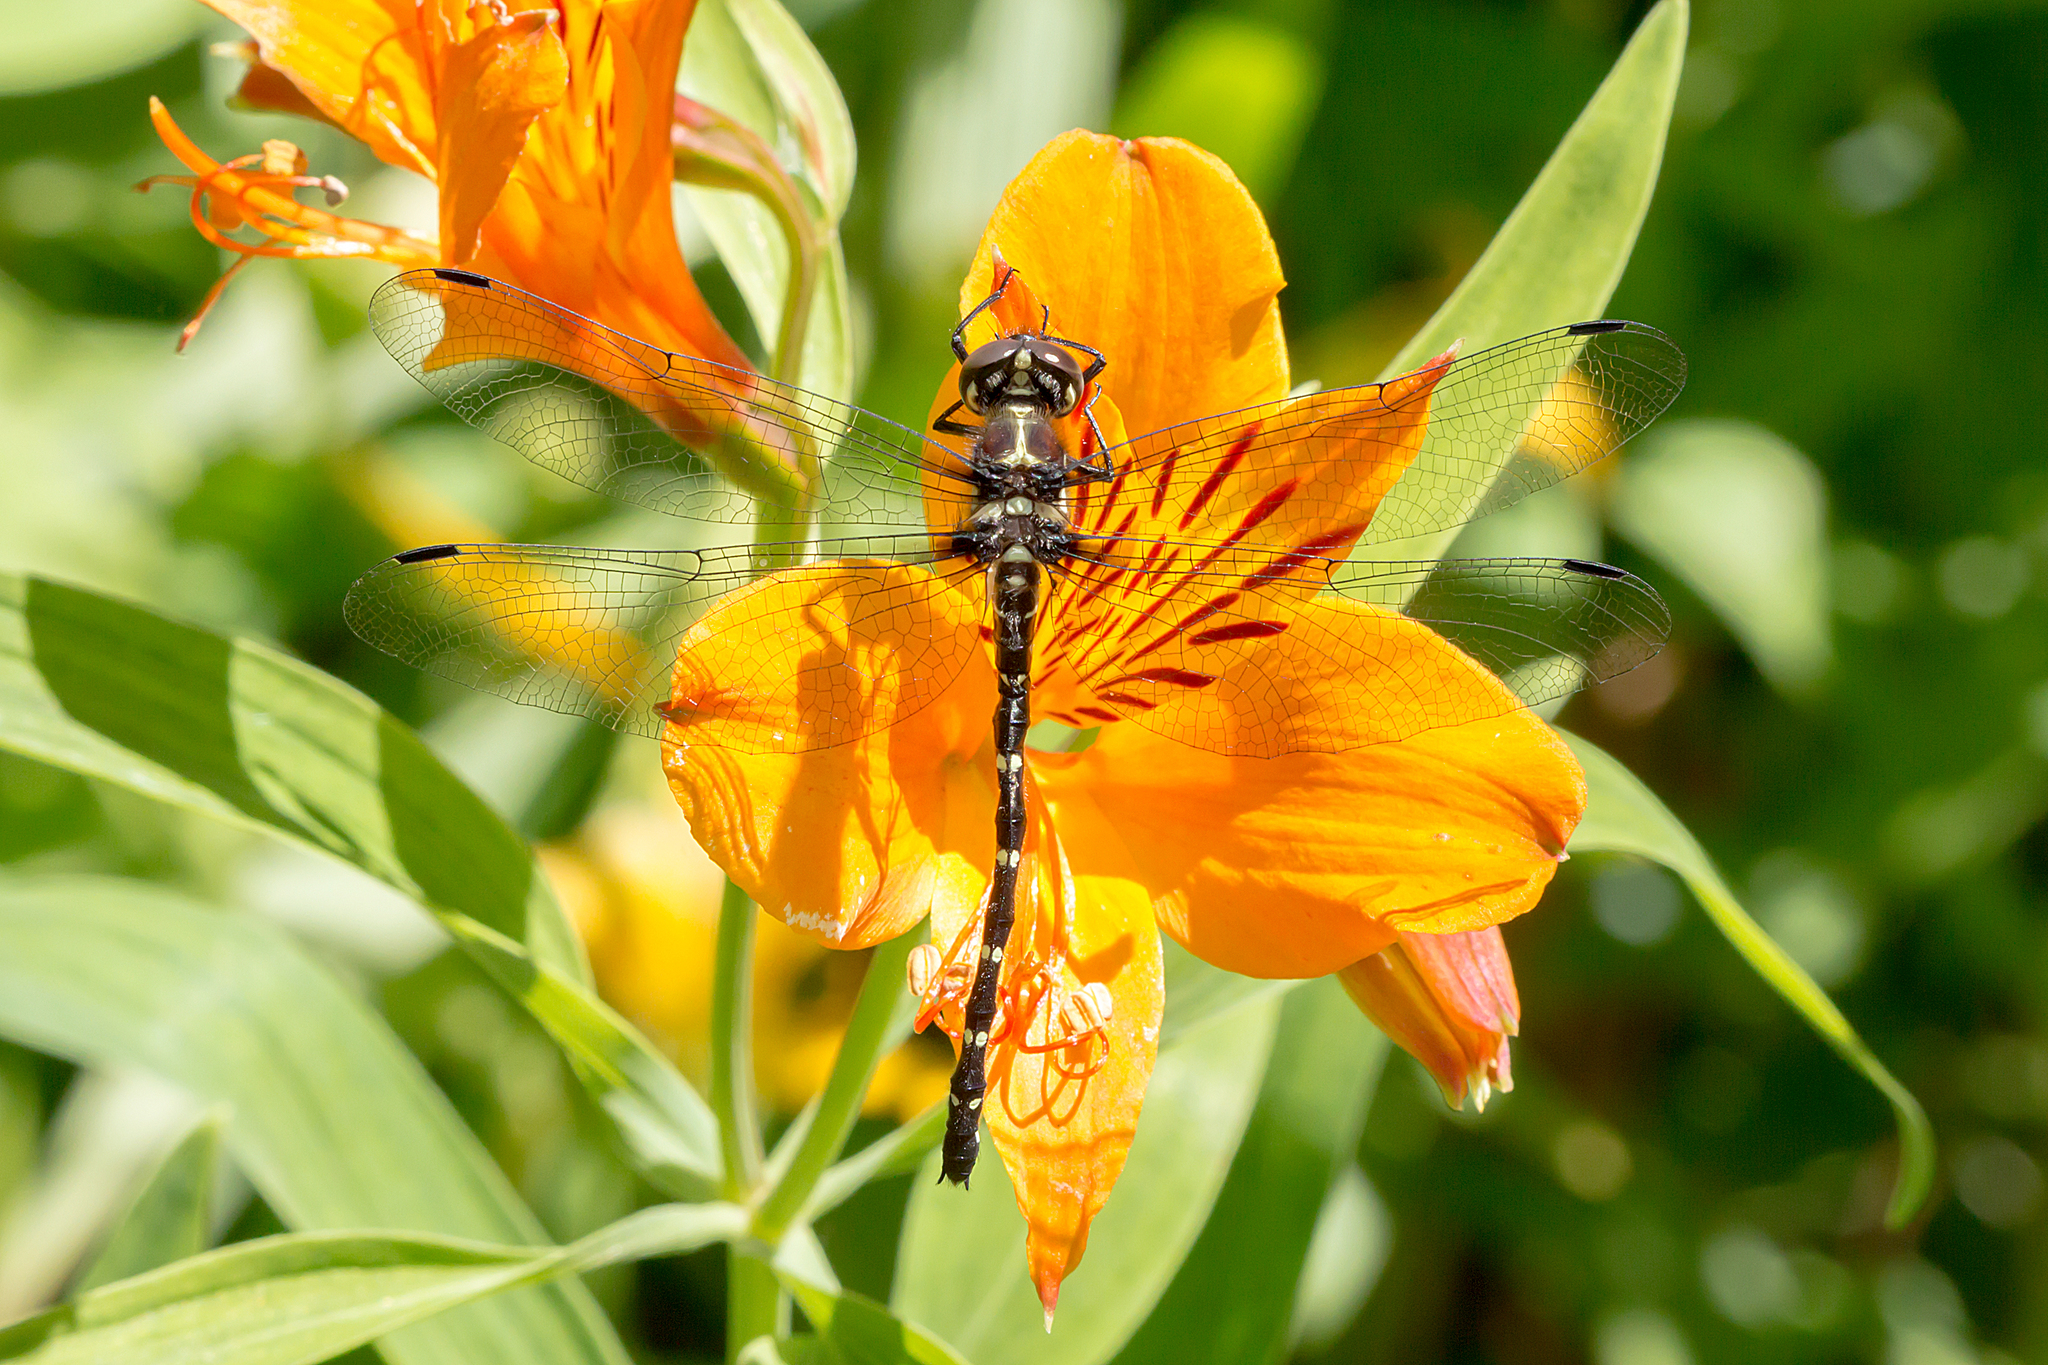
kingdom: Animalia
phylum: Arthropoda
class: Insecta
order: Odonata
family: Synthemistidae
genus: Eusynthemis
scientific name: Eusynthemis guttata
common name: Southern tigertail
